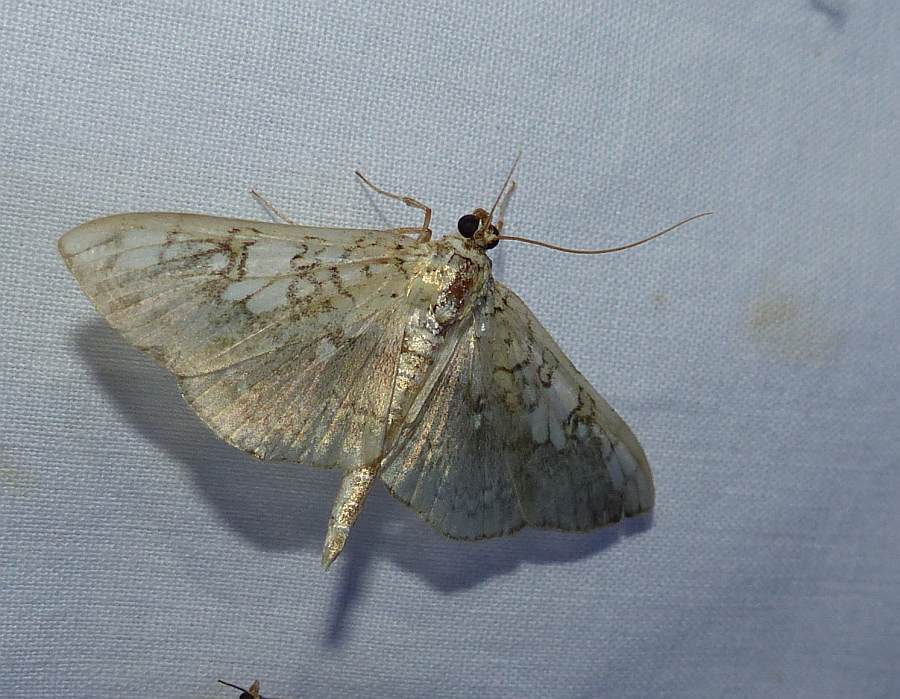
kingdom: Animalia
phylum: Arthropoda
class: Insecta
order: Lepidoptera
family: Crambidae
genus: Pantographa
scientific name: Pantographa limata
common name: Basswood leafroller moth
